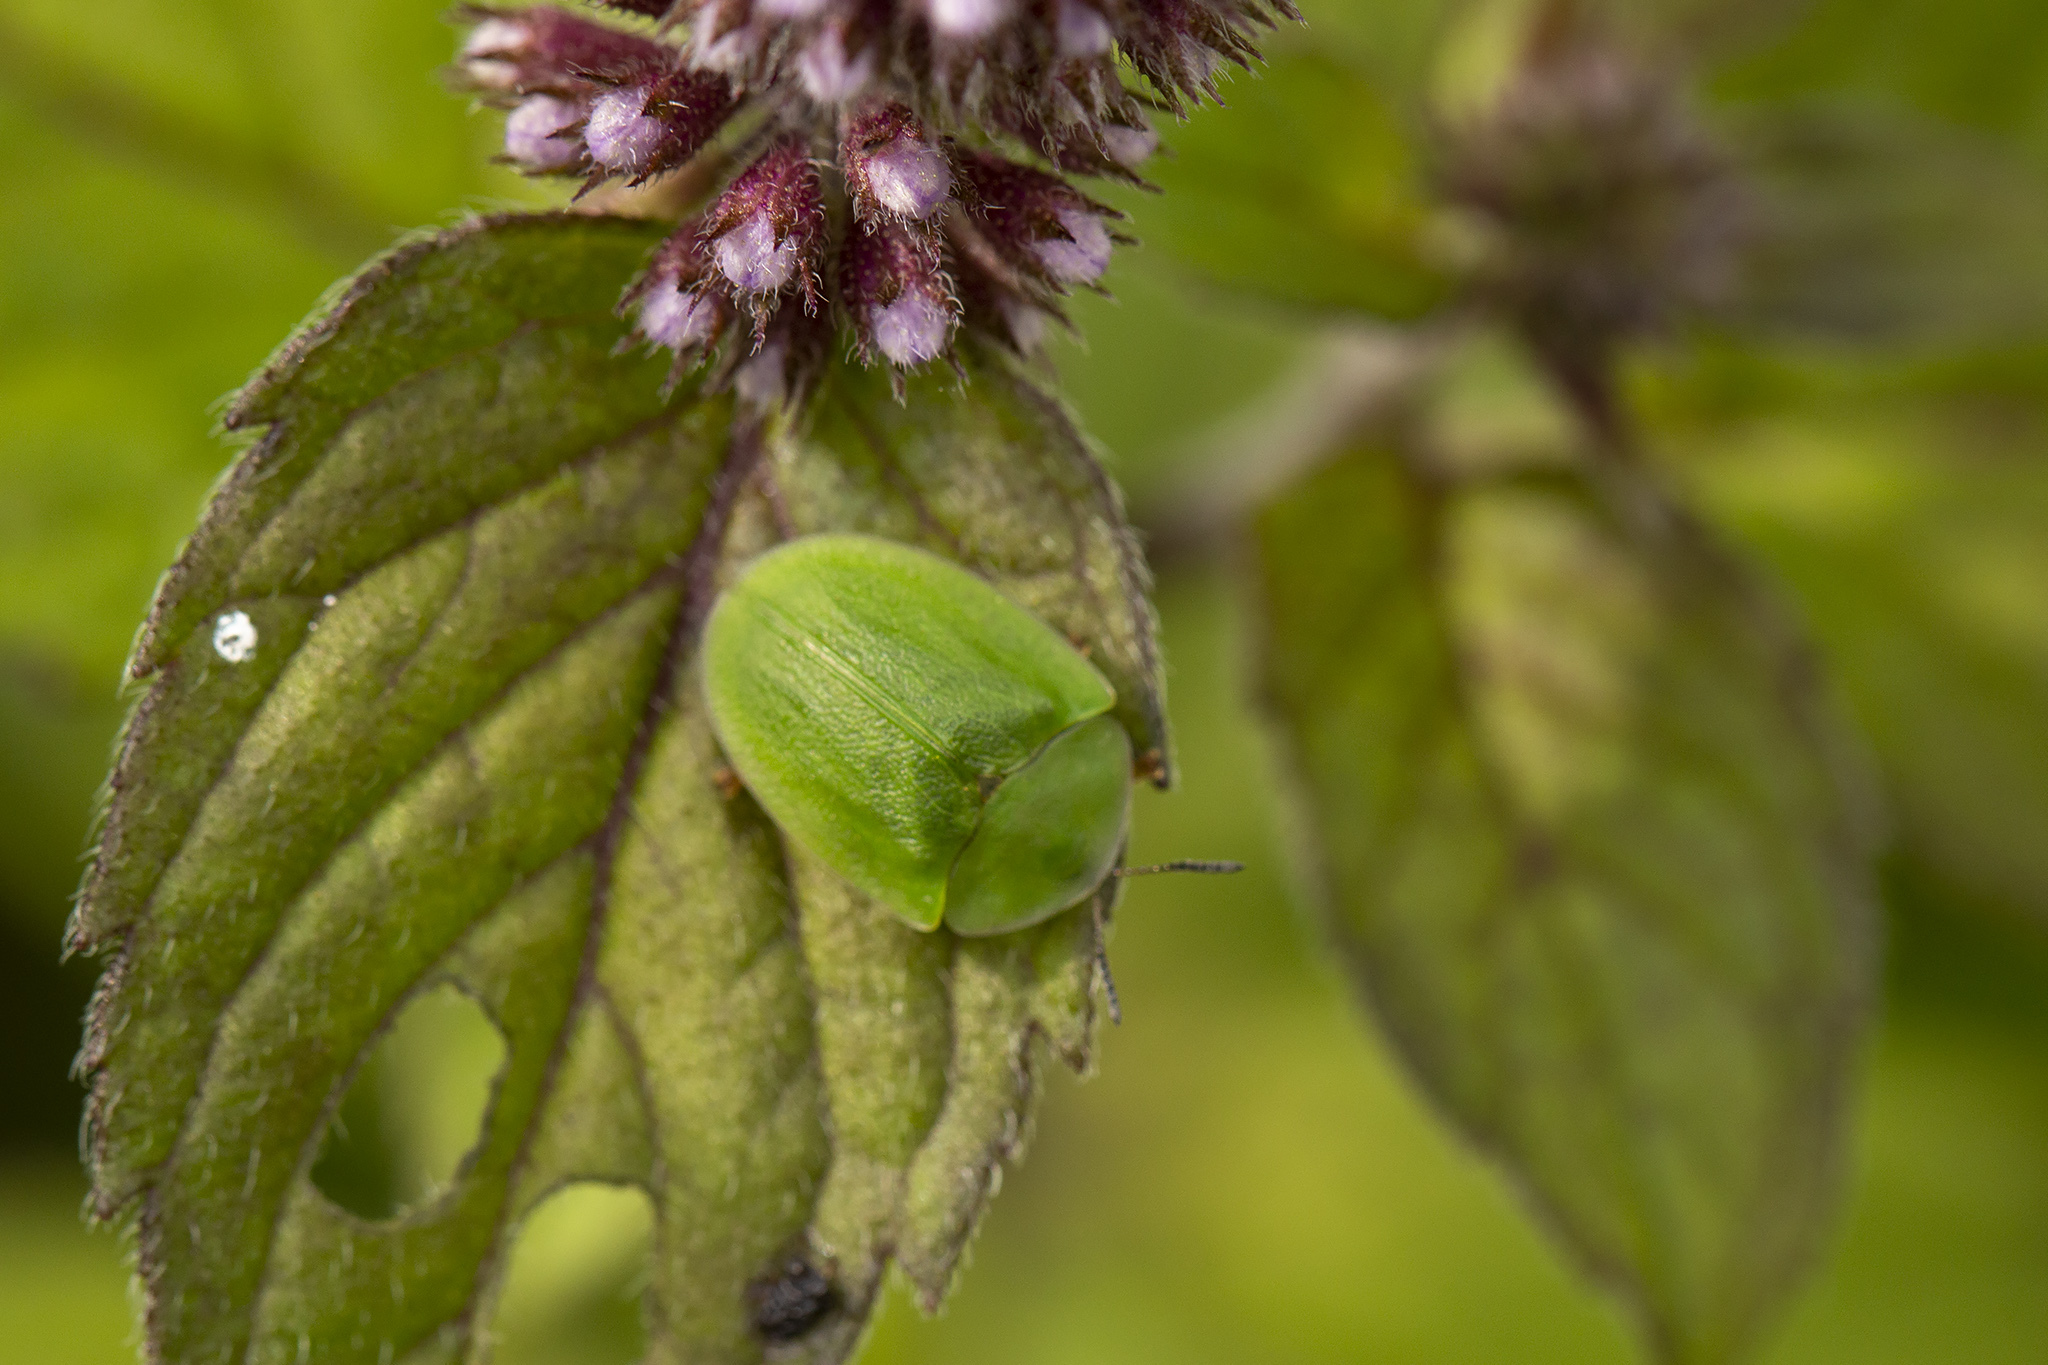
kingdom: Animalia
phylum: Arthropoda
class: Insecta
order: Coleoptera
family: Chrysomelidae
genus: Cassida
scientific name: Cassida viridis
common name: Green tortoise beetle
